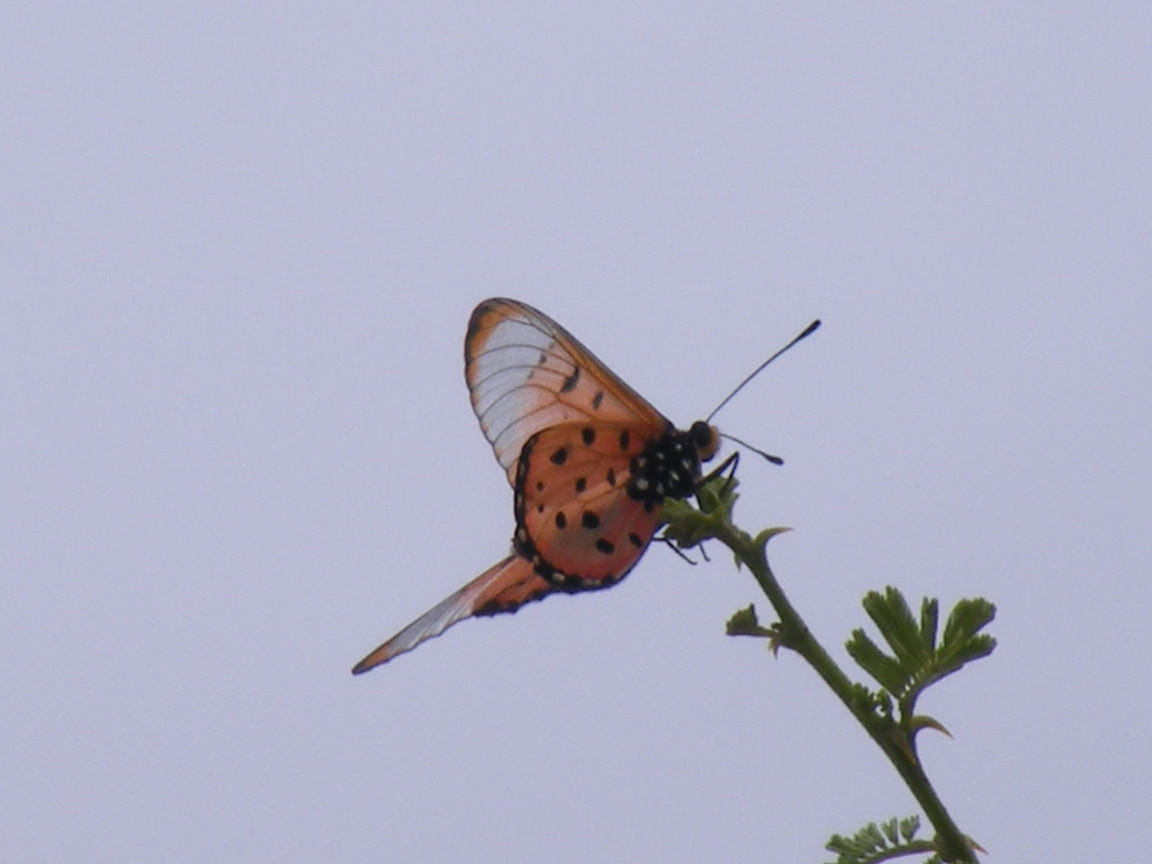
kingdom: Animalia
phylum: Arthropoda
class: Insecta
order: Lepidoptera
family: Nymphalidae
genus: Acraea
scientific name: Acraea neobule
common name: Dancing acraea
